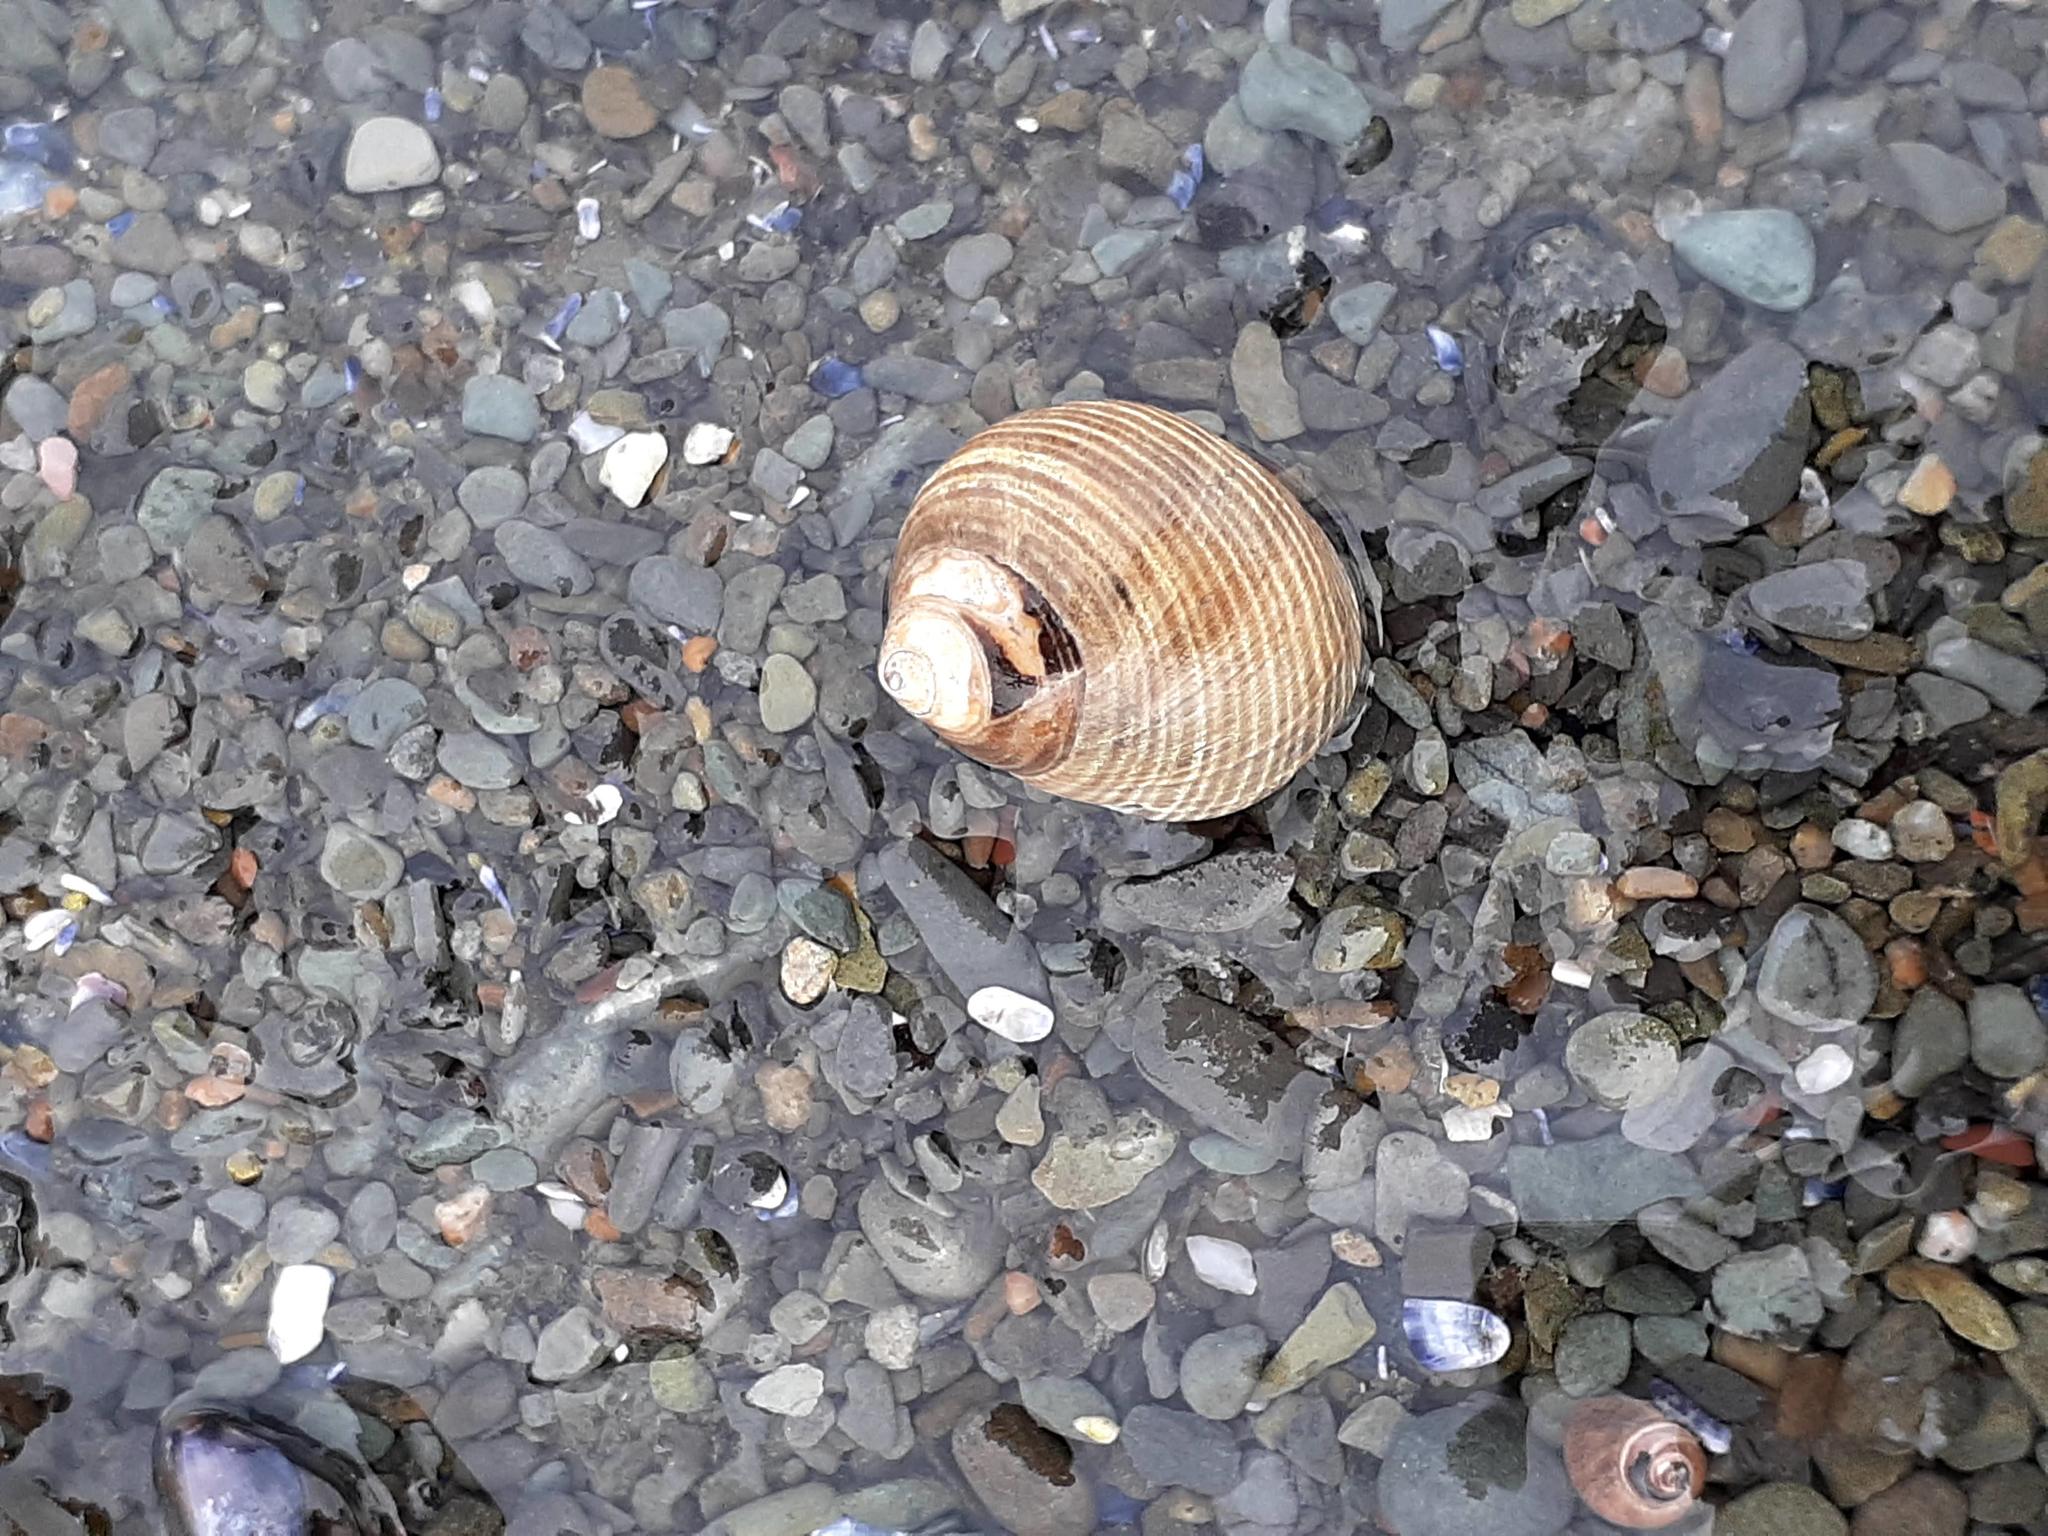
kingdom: Animalia
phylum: Mollusca
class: Gastropoda
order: Littorinimorpha
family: Littorinidae
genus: Littorina
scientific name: Littorina littorea
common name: Common periwinkle
